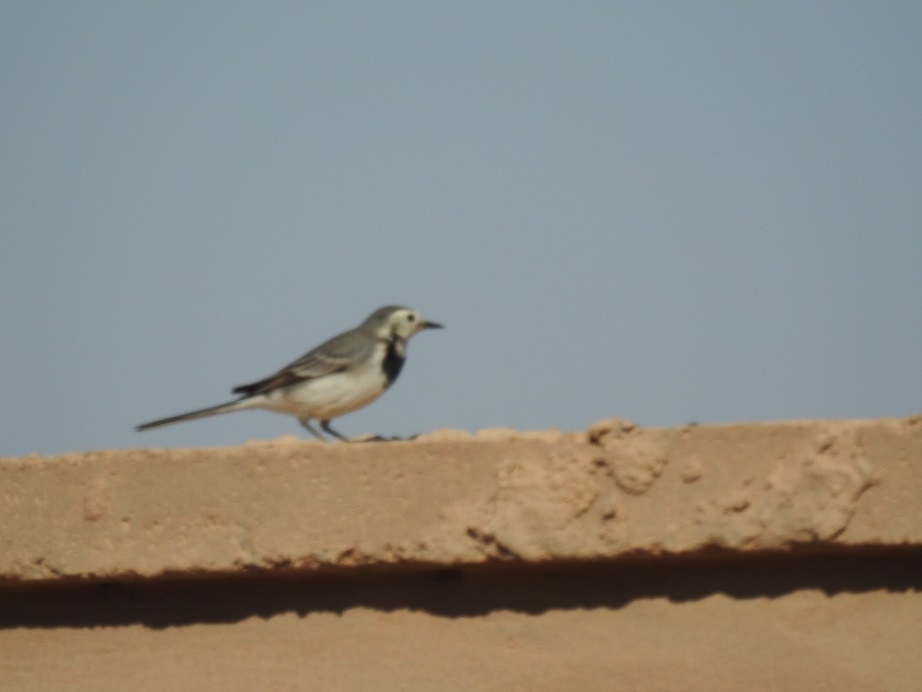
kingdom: Animalia
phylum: Chordata
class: Aves
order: Passeriformes
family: Motacillidae
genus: Motacilla
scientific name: Motacilla alba
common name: White wagtail
